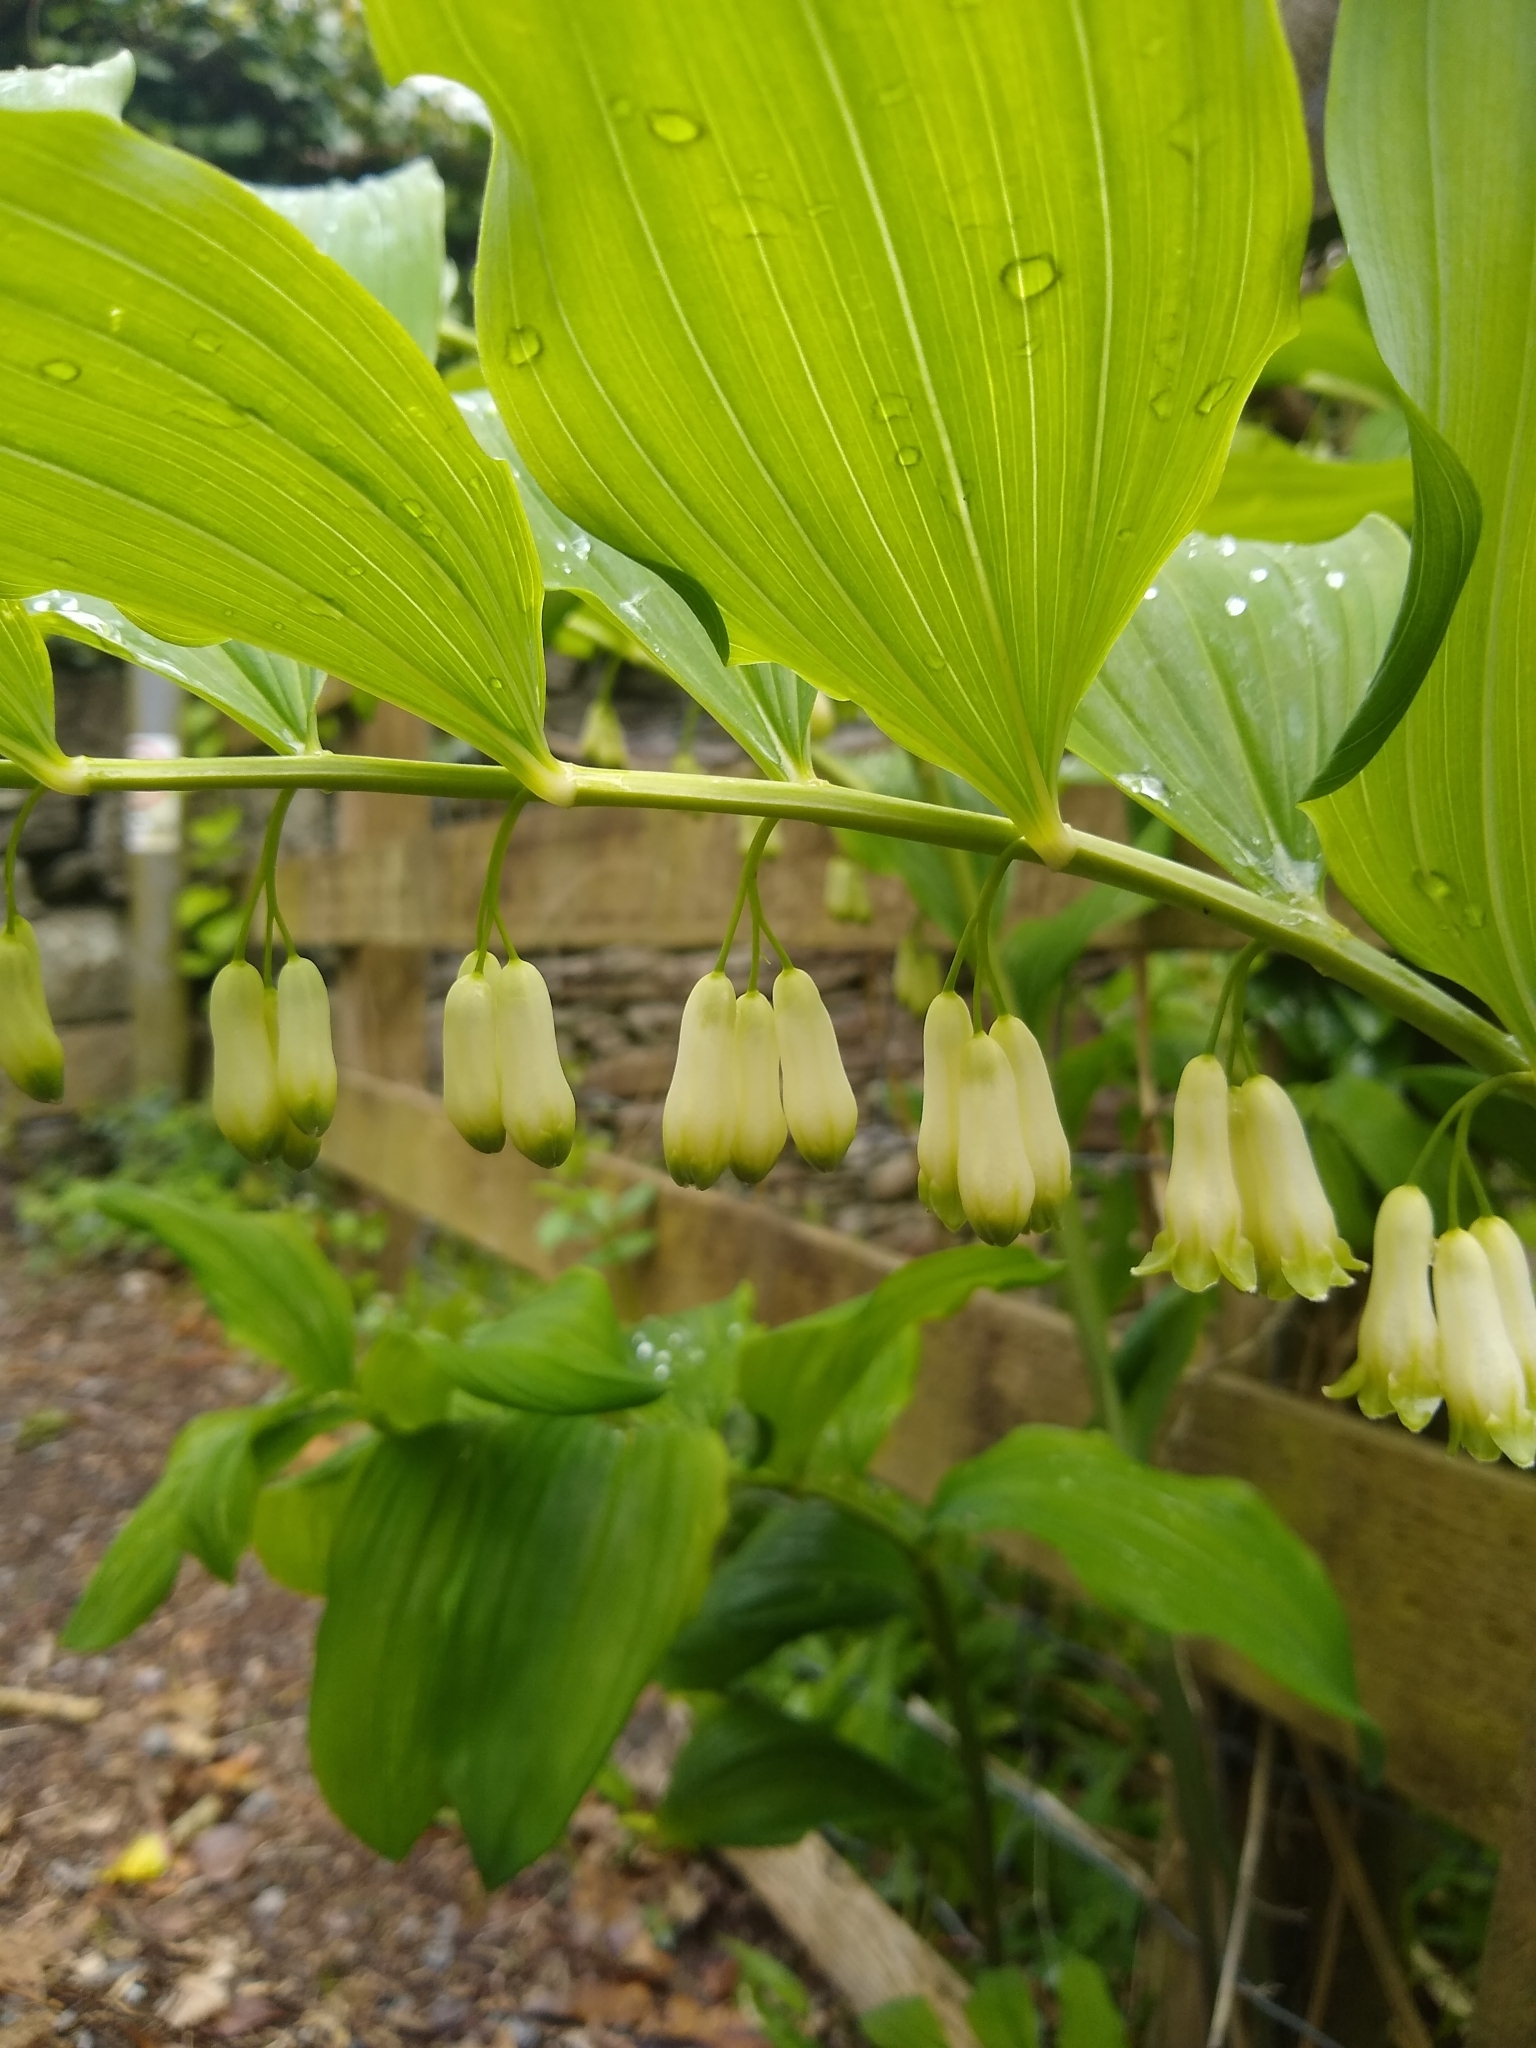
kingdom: Plantae
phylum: Tracheophyta
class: Liliopsida
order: Asparagales
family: Asparagaceae
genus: Polygonatum
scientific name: Polygonatum hybridum
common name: Garden solomon's-seal
